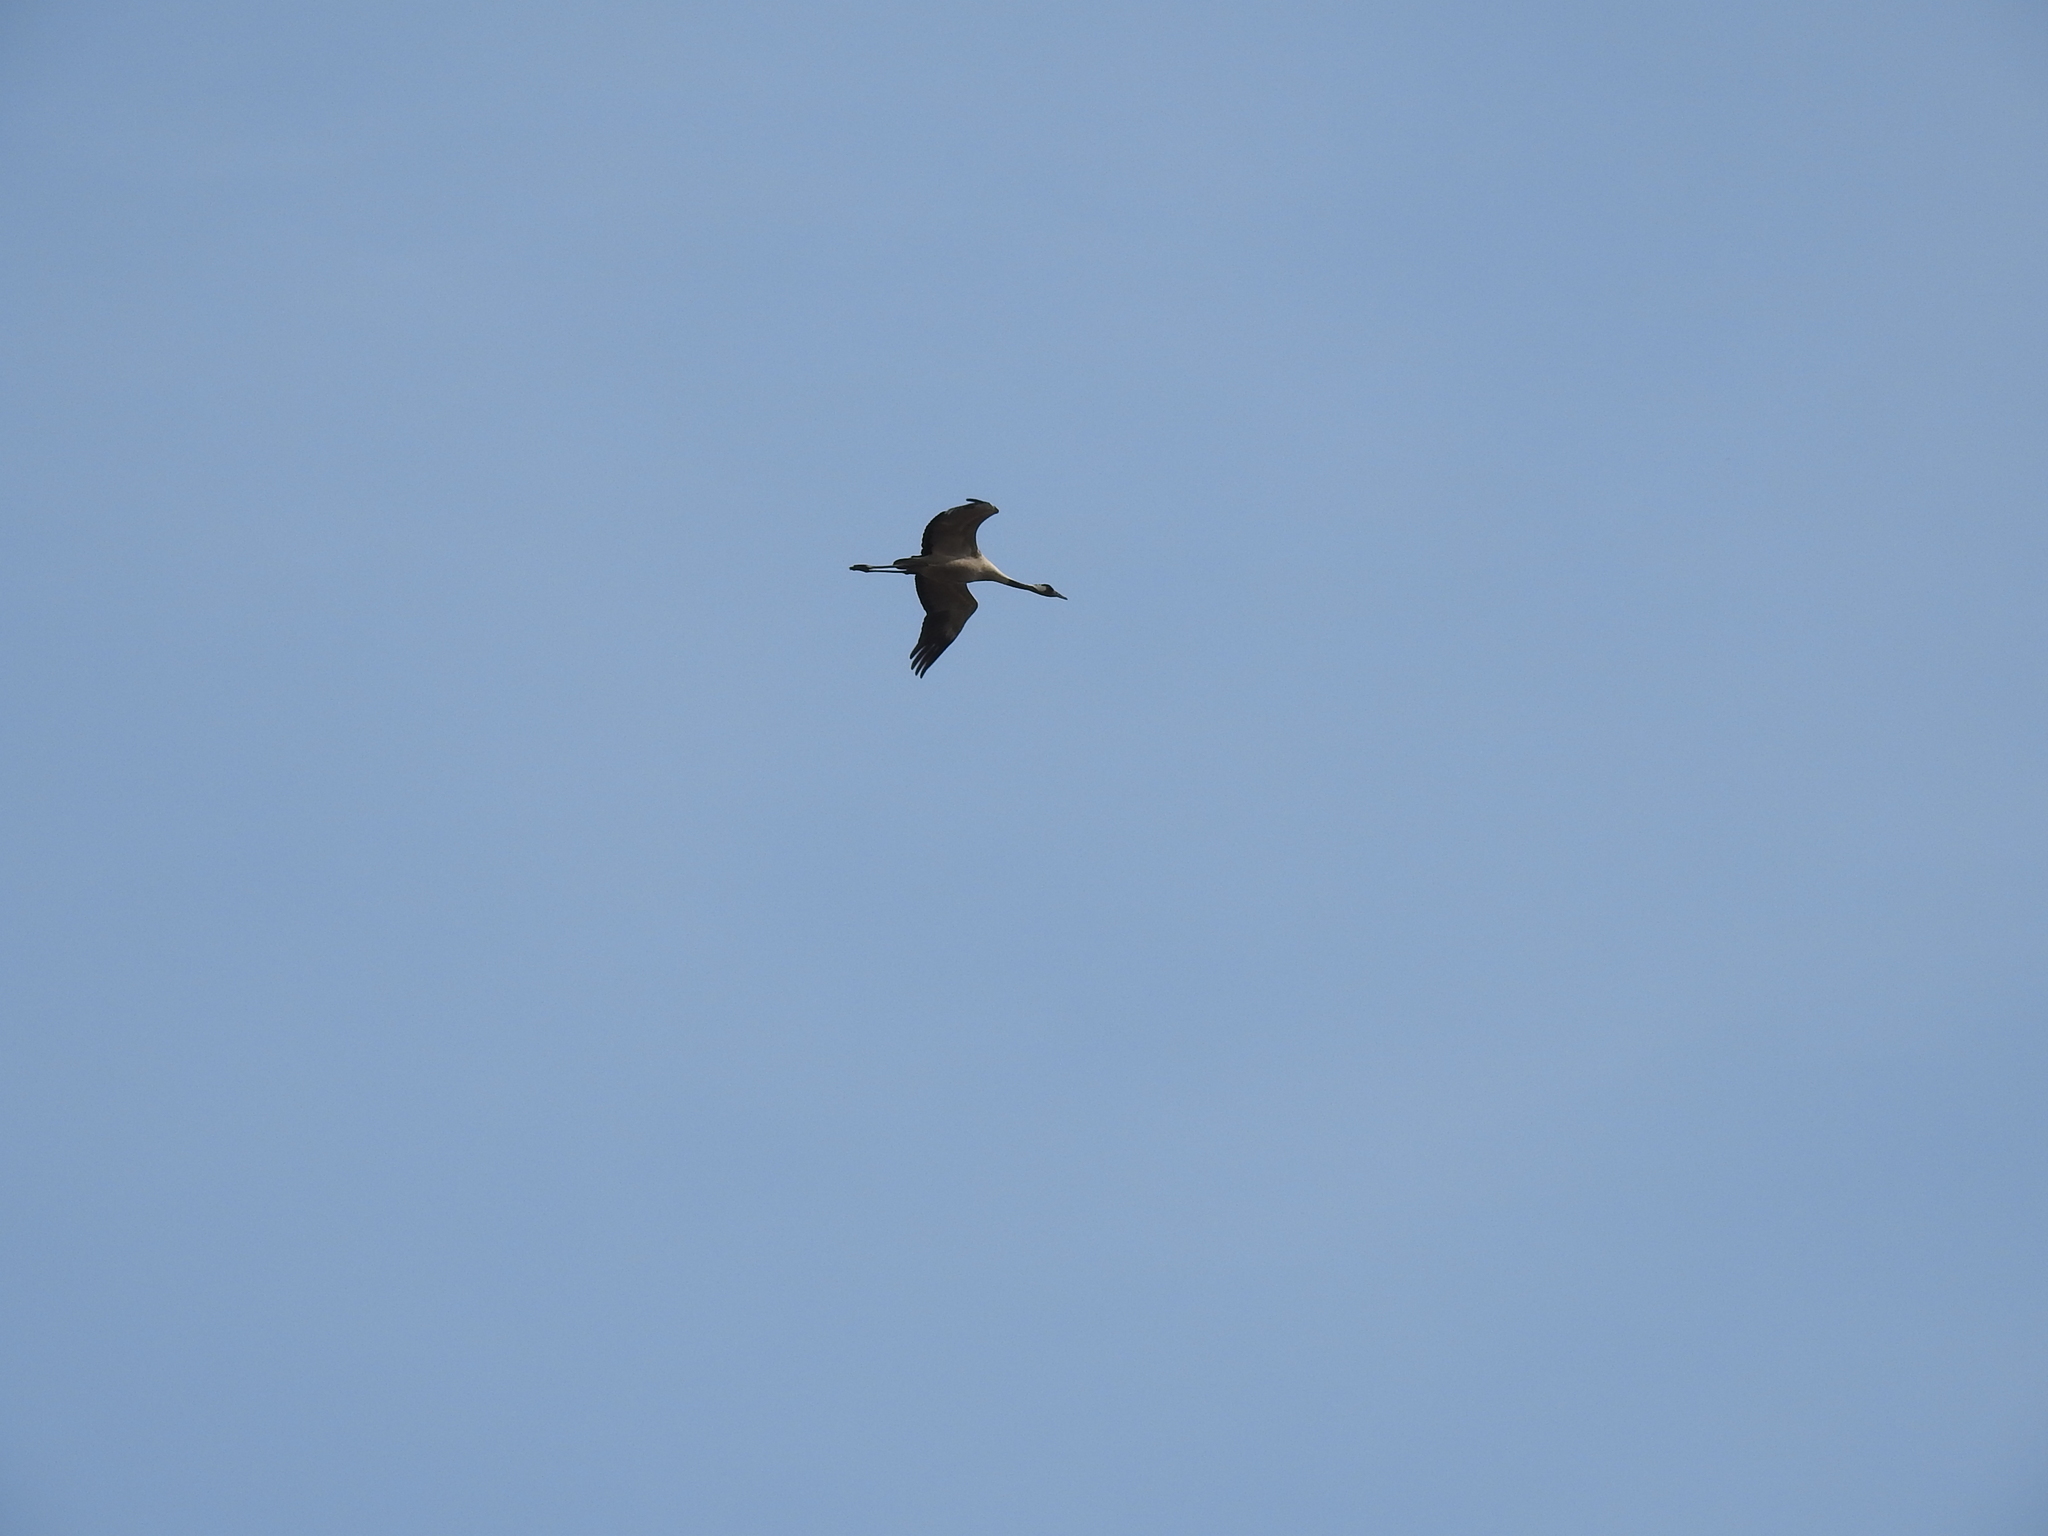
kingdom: Animalia
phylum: Chordata
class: Aves
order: Gruiformes
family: Gruidae
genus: Grus
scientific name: Grus grus
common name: Common crane
